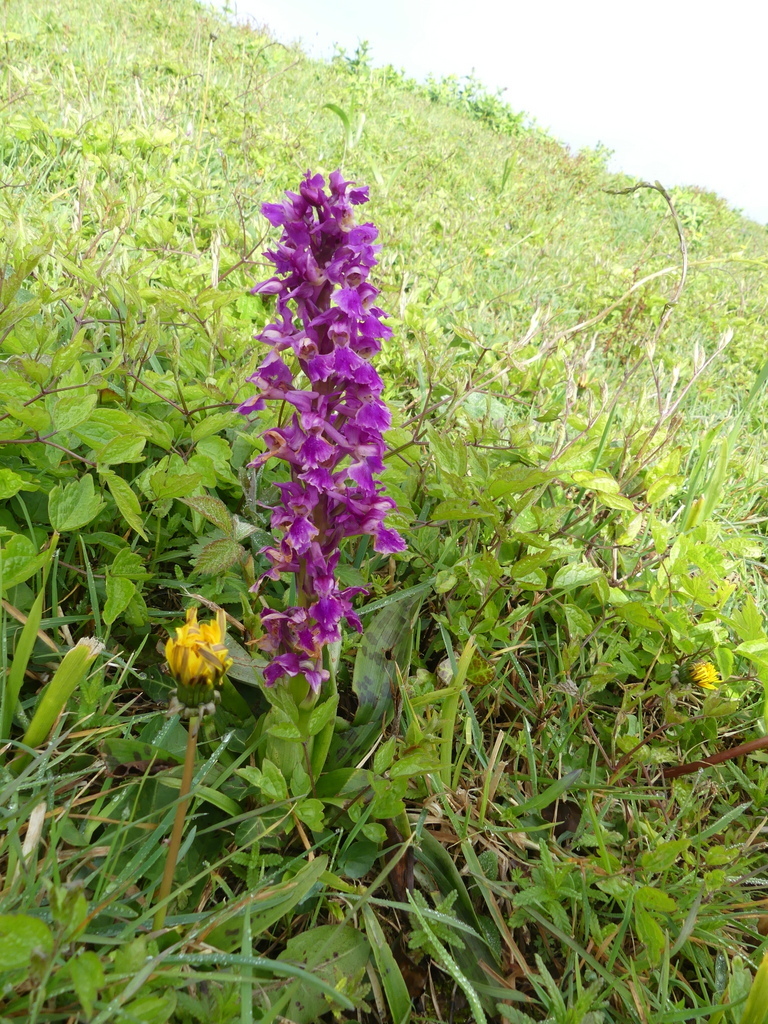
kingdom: Plantae
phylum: Tracheophyta
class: Liliopsida
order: Asparagales
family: Orchidaceae
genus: Orchis
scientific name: Orchis mascula
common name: Early-purple orchid
